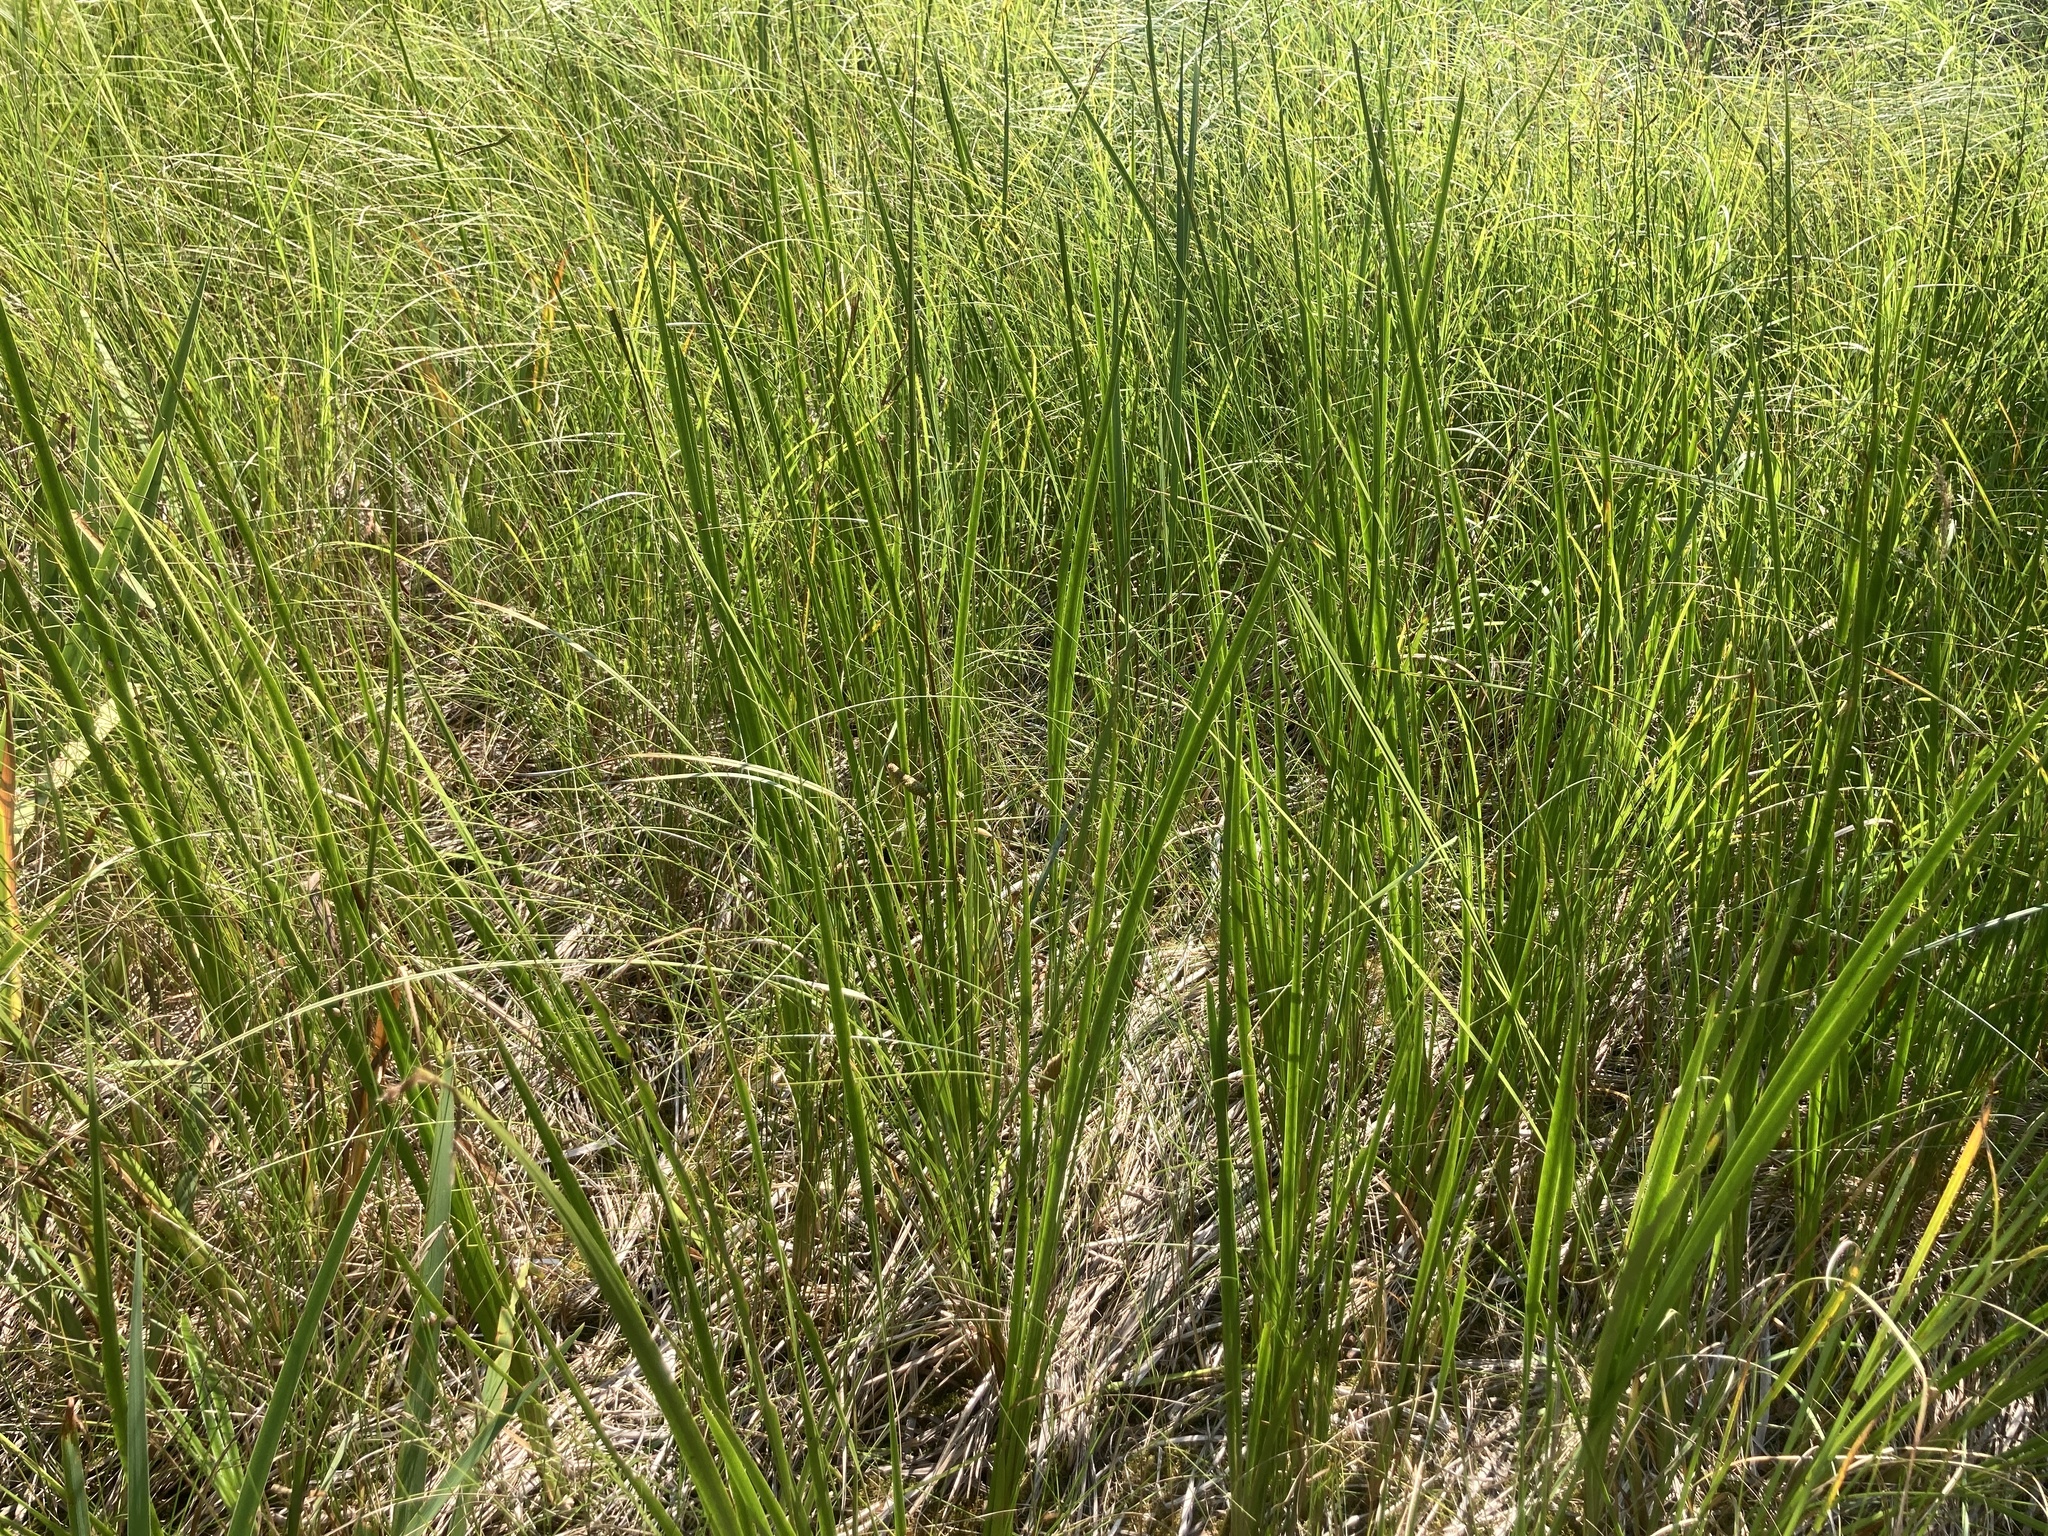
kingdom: Plantae
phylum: Tracheophyta
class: Liliopsida
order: Acorales
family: Acoraceae
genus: Acorus
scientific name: Acorus calamus
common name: Sweet-flag
